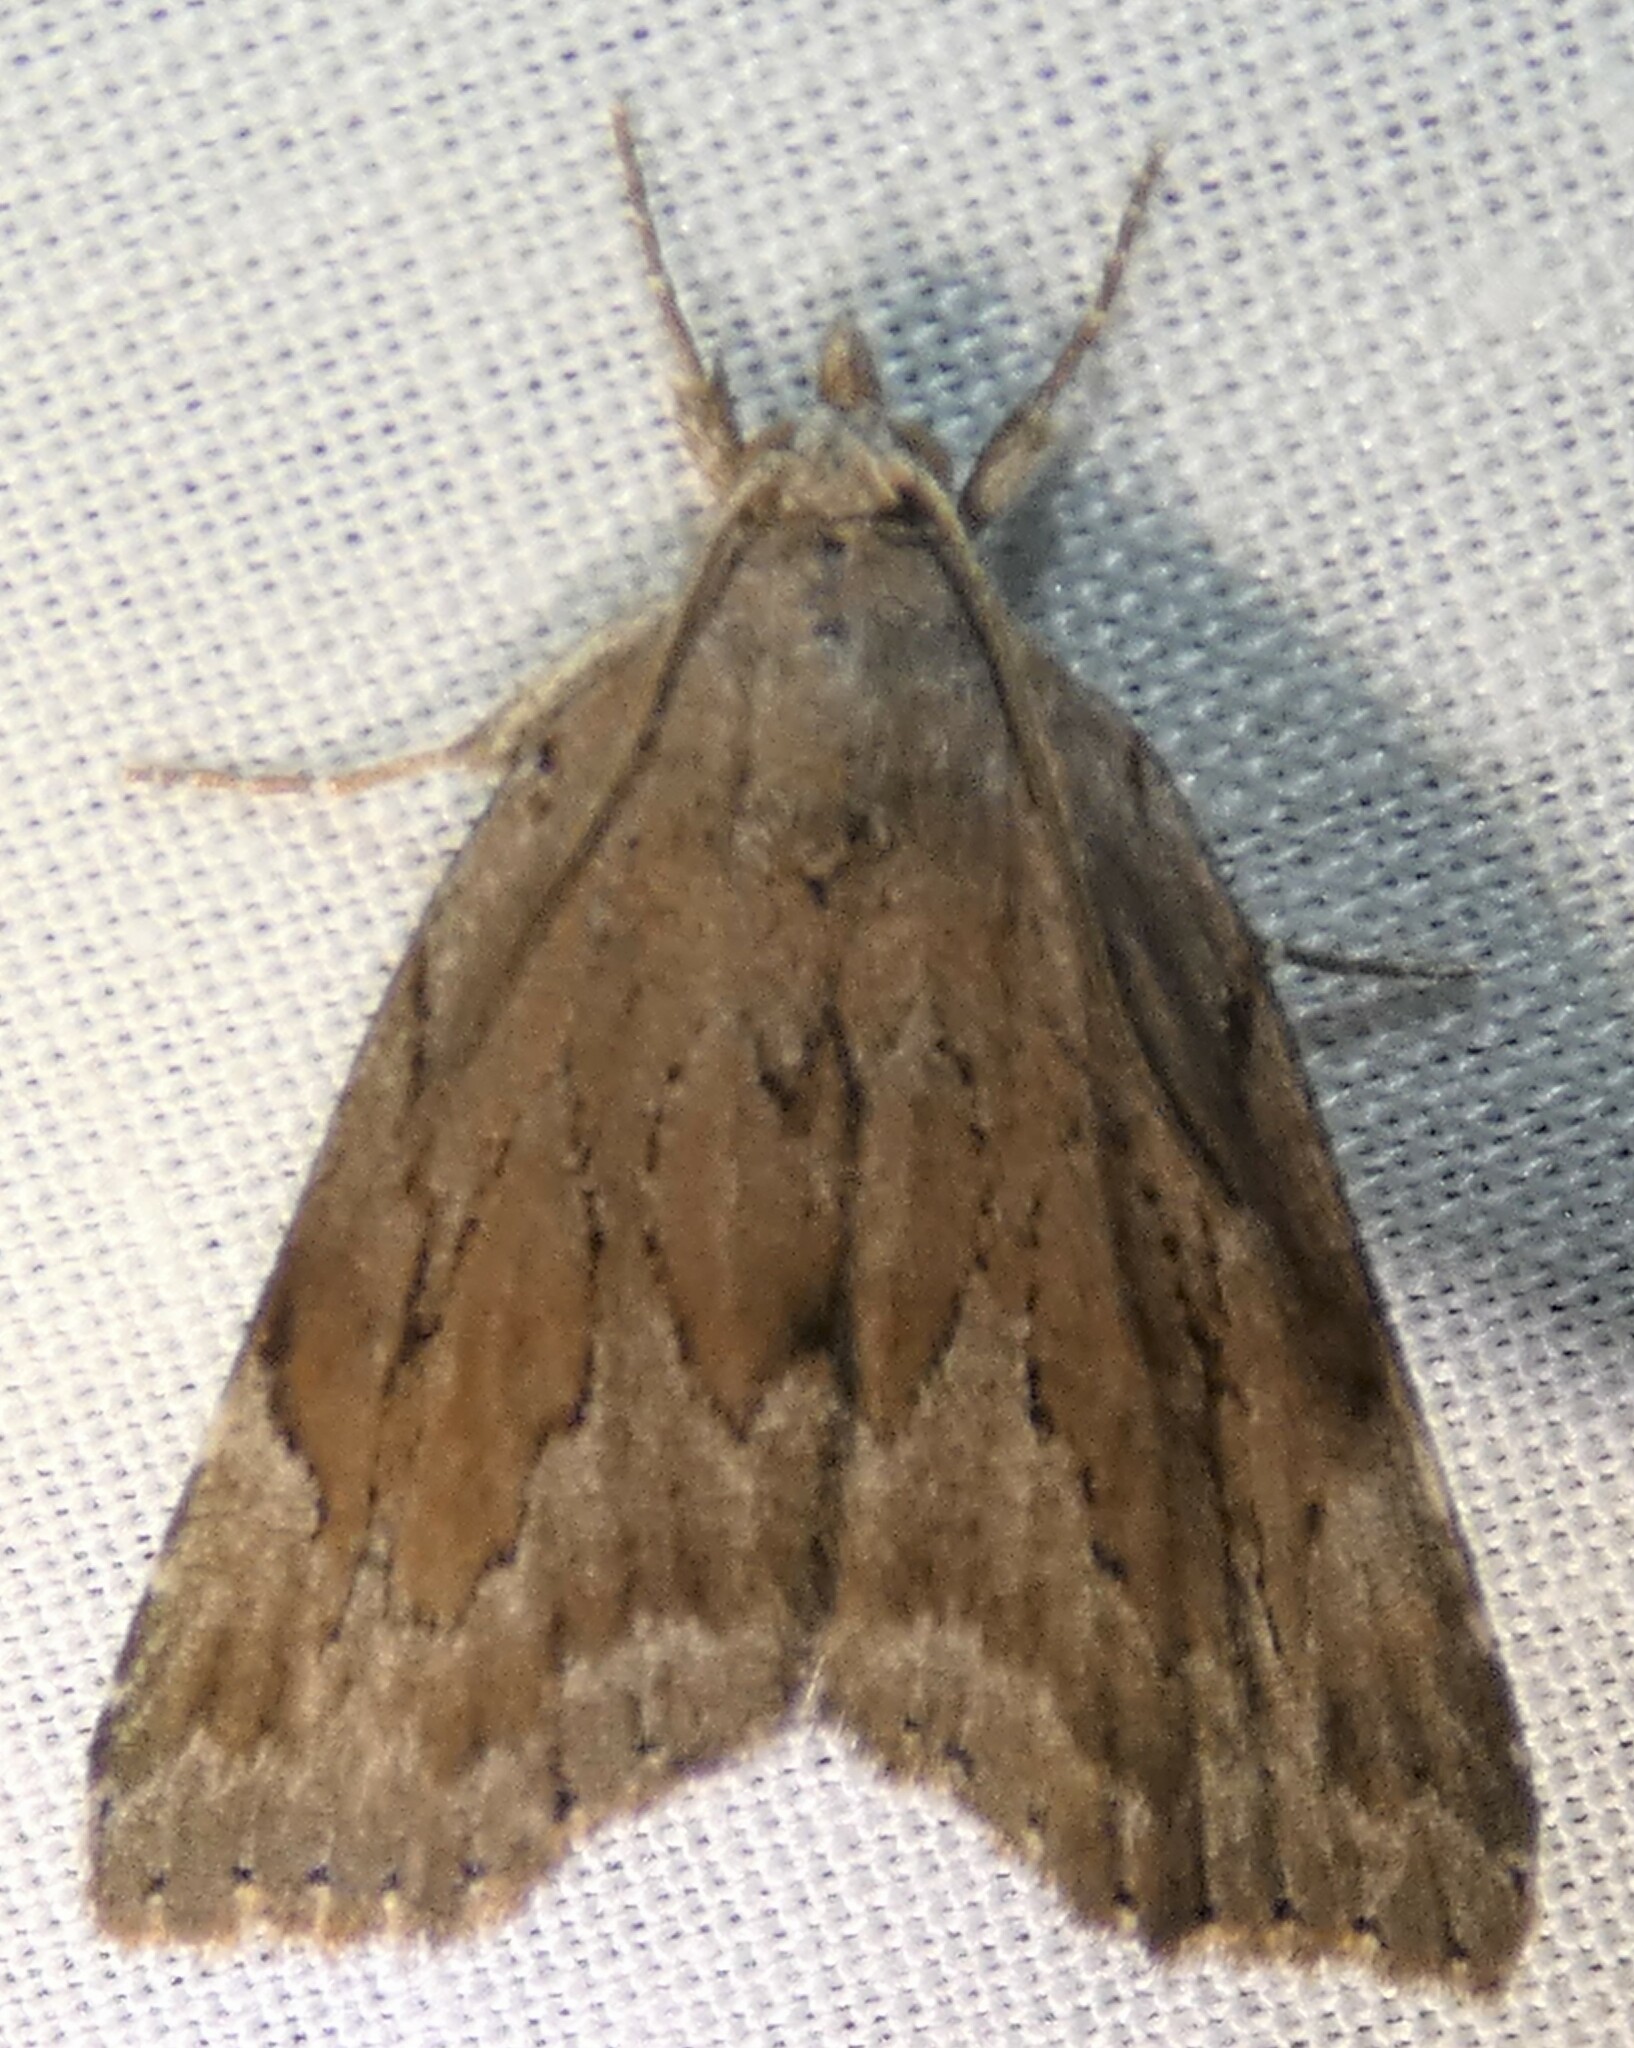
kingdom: Animalia
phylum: Arthropoda
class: Insecta
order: Lepidoptera
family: Erebidae
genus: Cutina
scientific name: Cutina albopunctella
